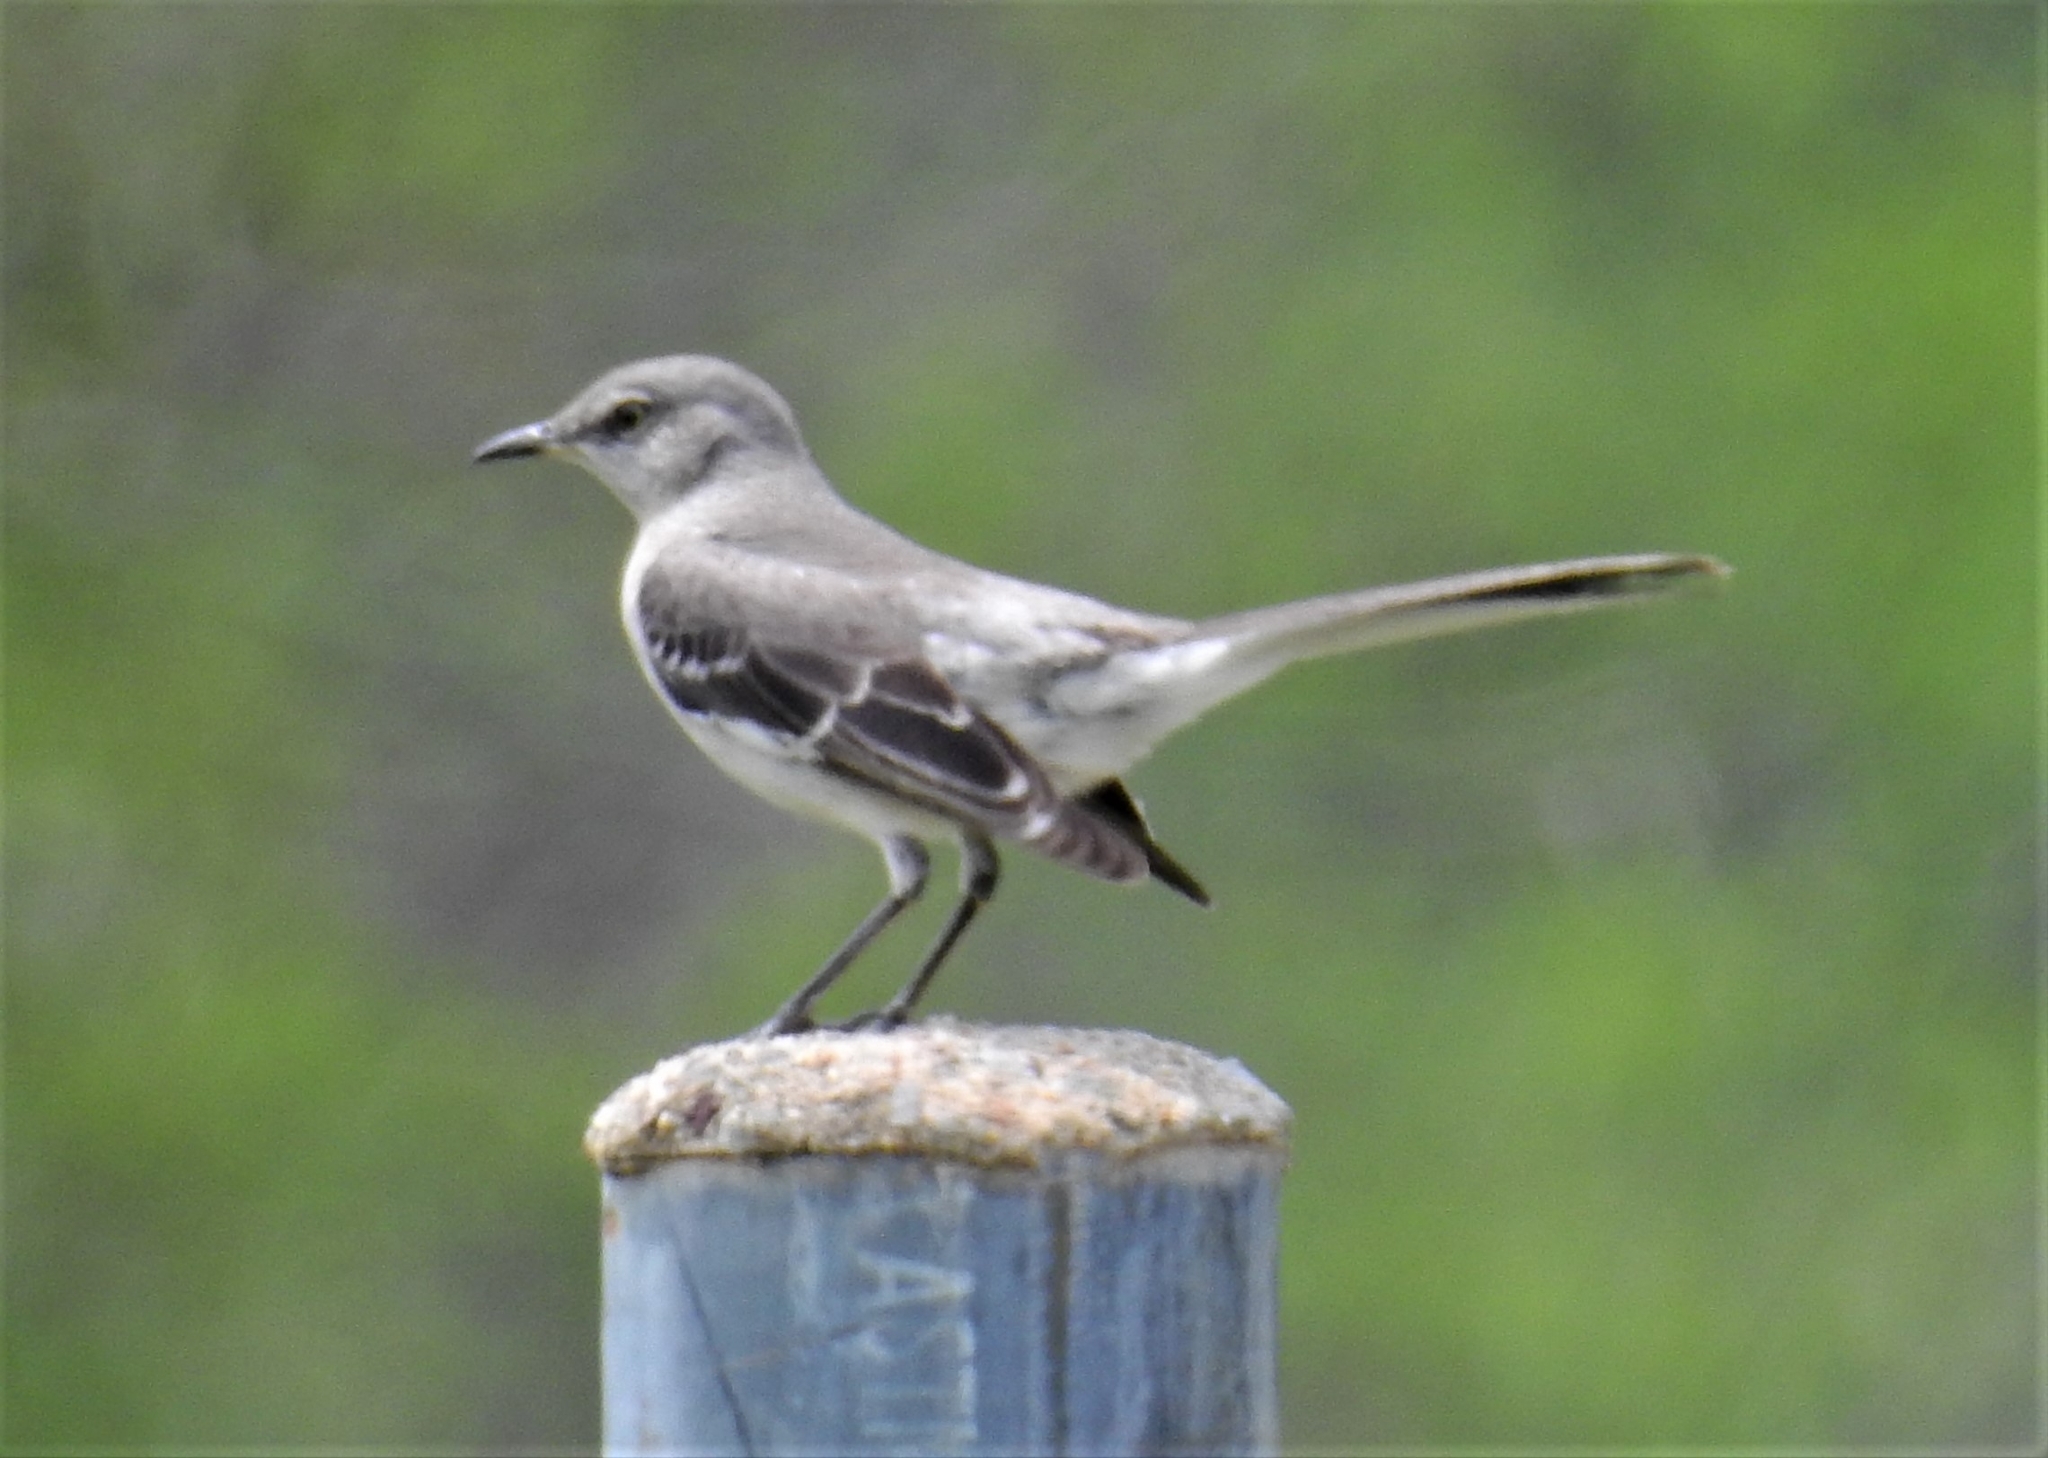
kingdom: Animalia
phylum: Chordata
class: Aves
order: Passeriformes
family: Mimidae
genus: Mimus
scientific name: Mimus polyglottos
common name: Northern mockingbird
